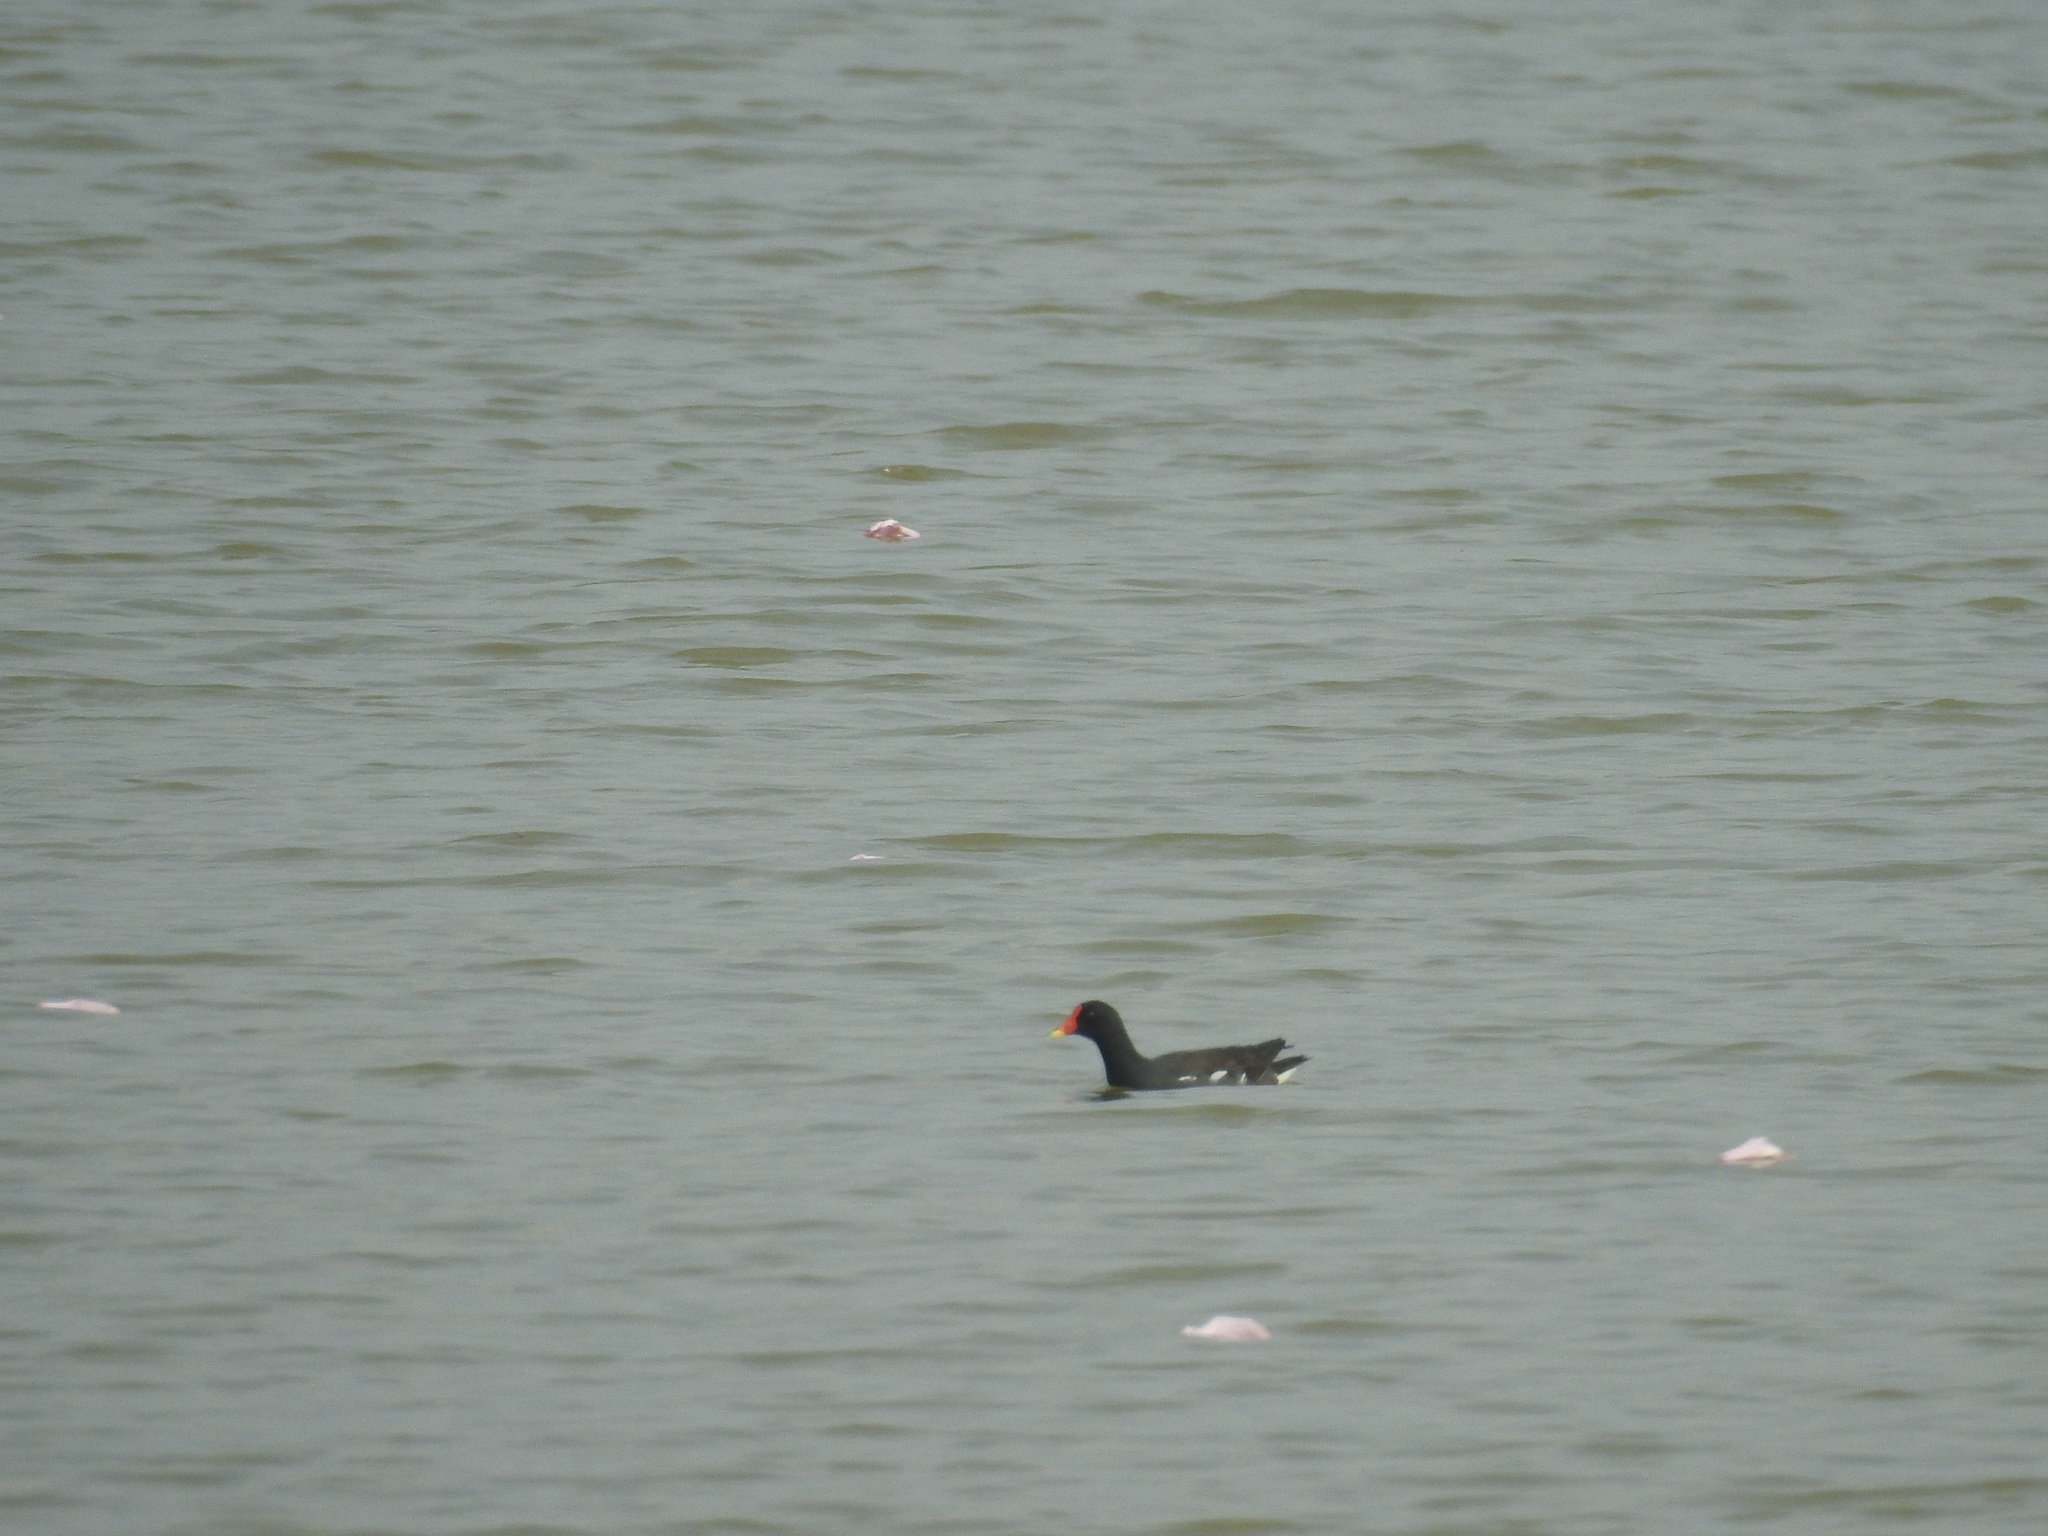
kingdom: Animalia
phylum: Chordata
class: Aves
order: Gruiformes
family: Rallidae
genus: Gallinula
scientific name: Gallinula chloropus
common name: Common moorhen
